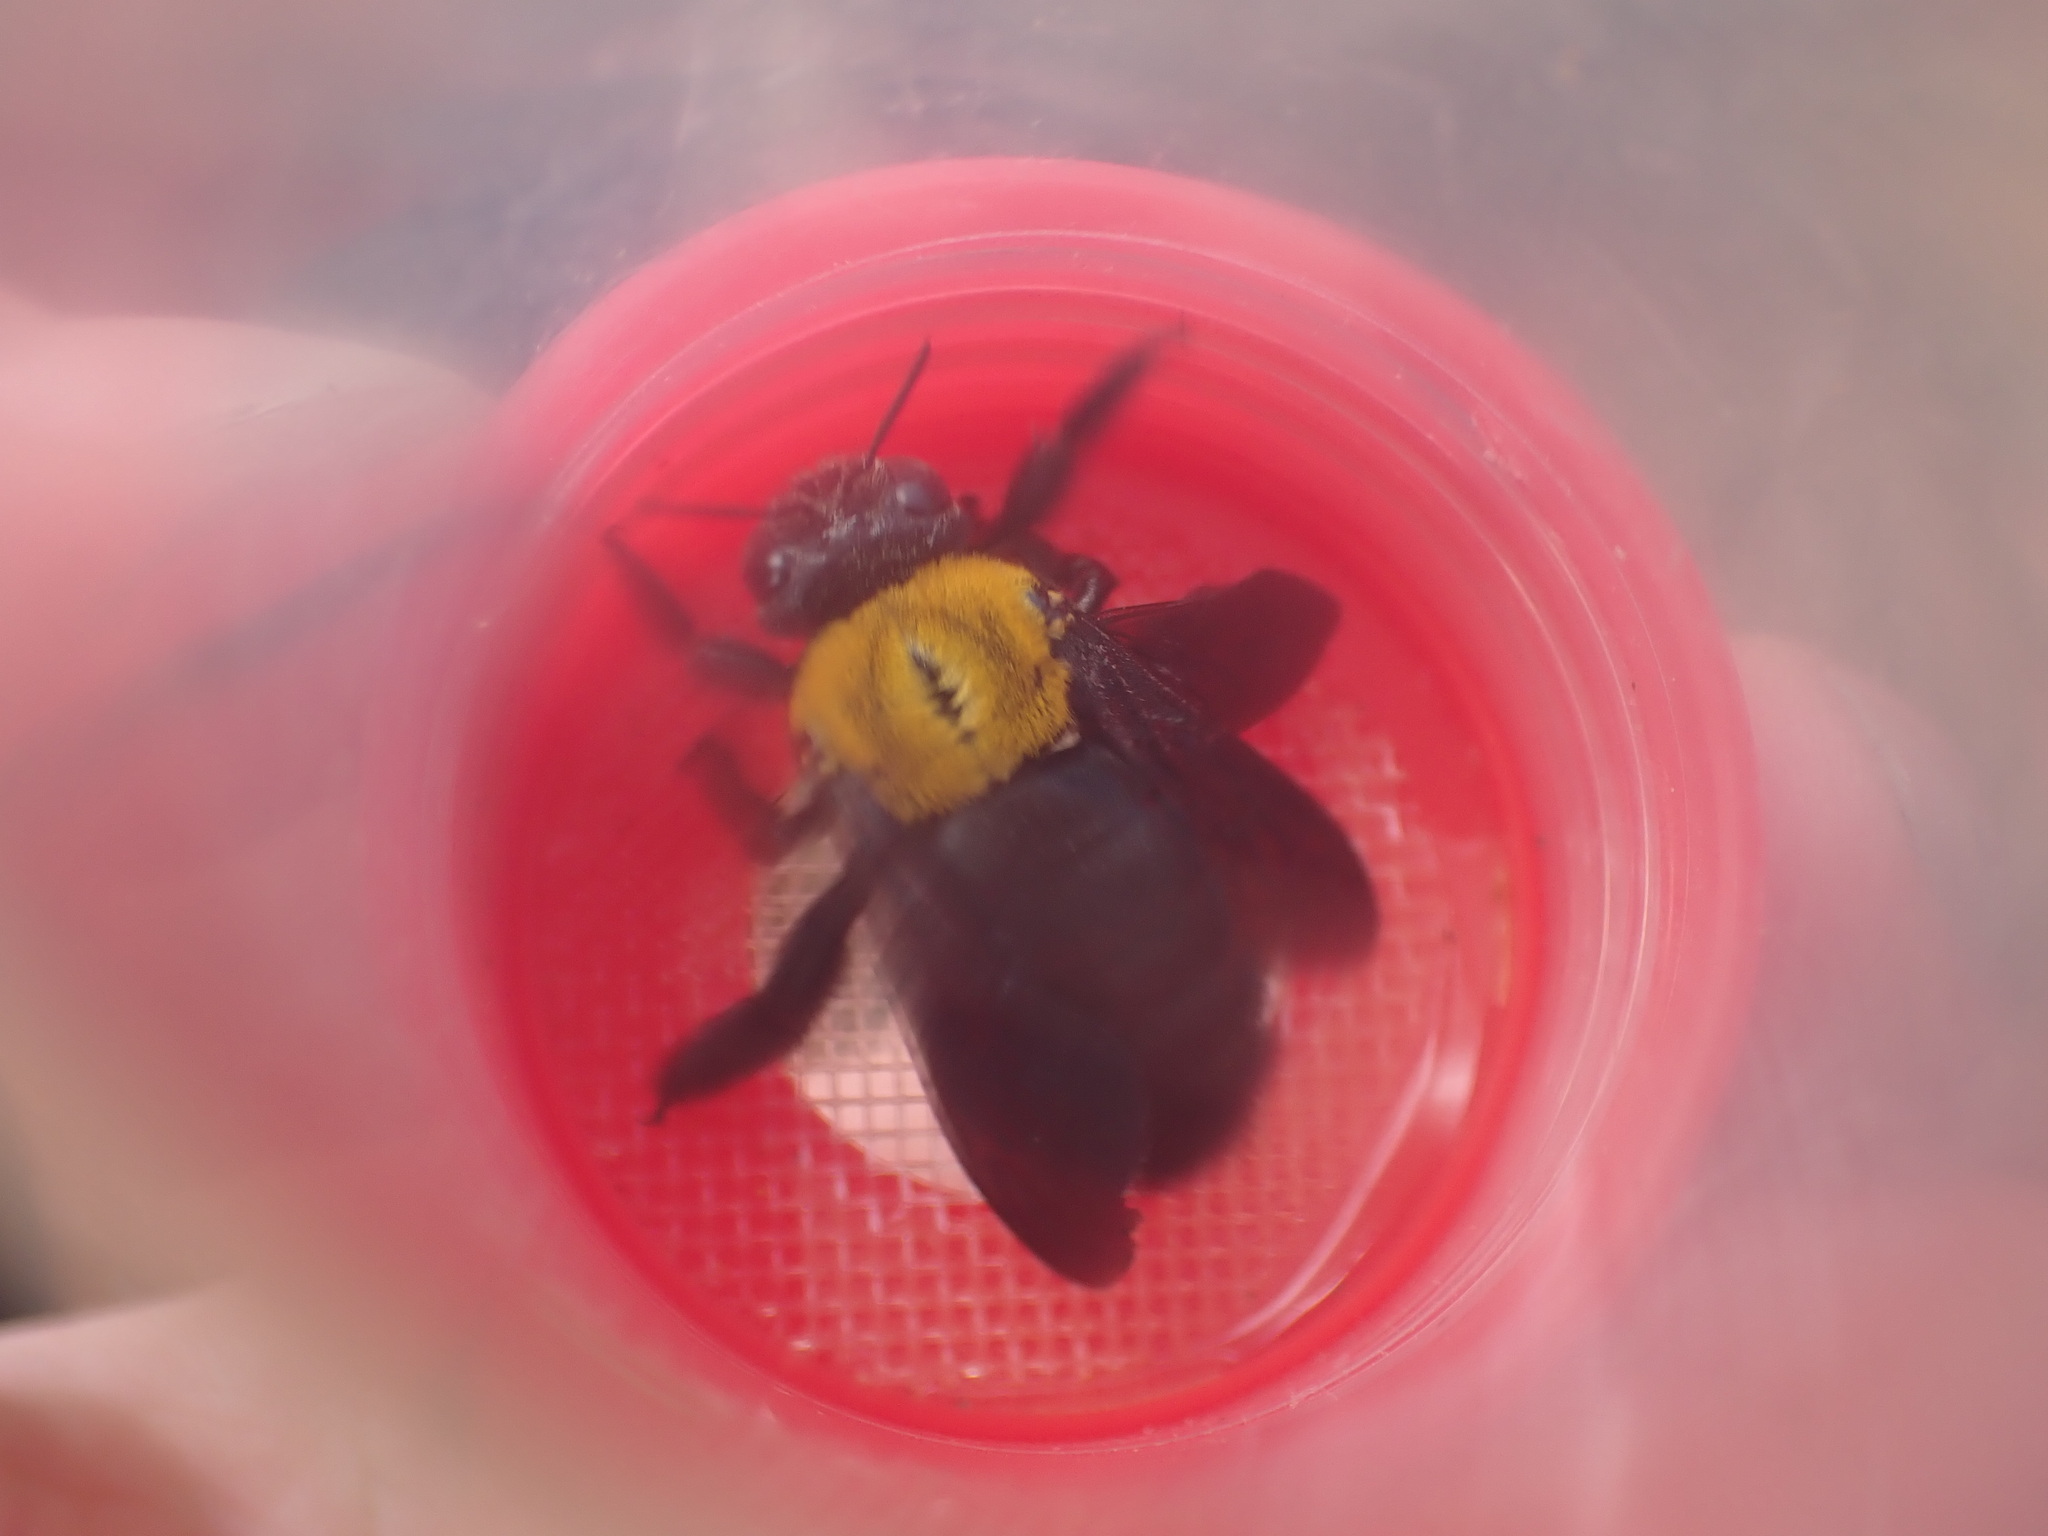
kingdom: Animalia
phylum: Arthropoda
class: Insecta
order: Hymenoptera
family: Apidae
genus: Xylocopa
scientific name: Xylocopa aestuans
